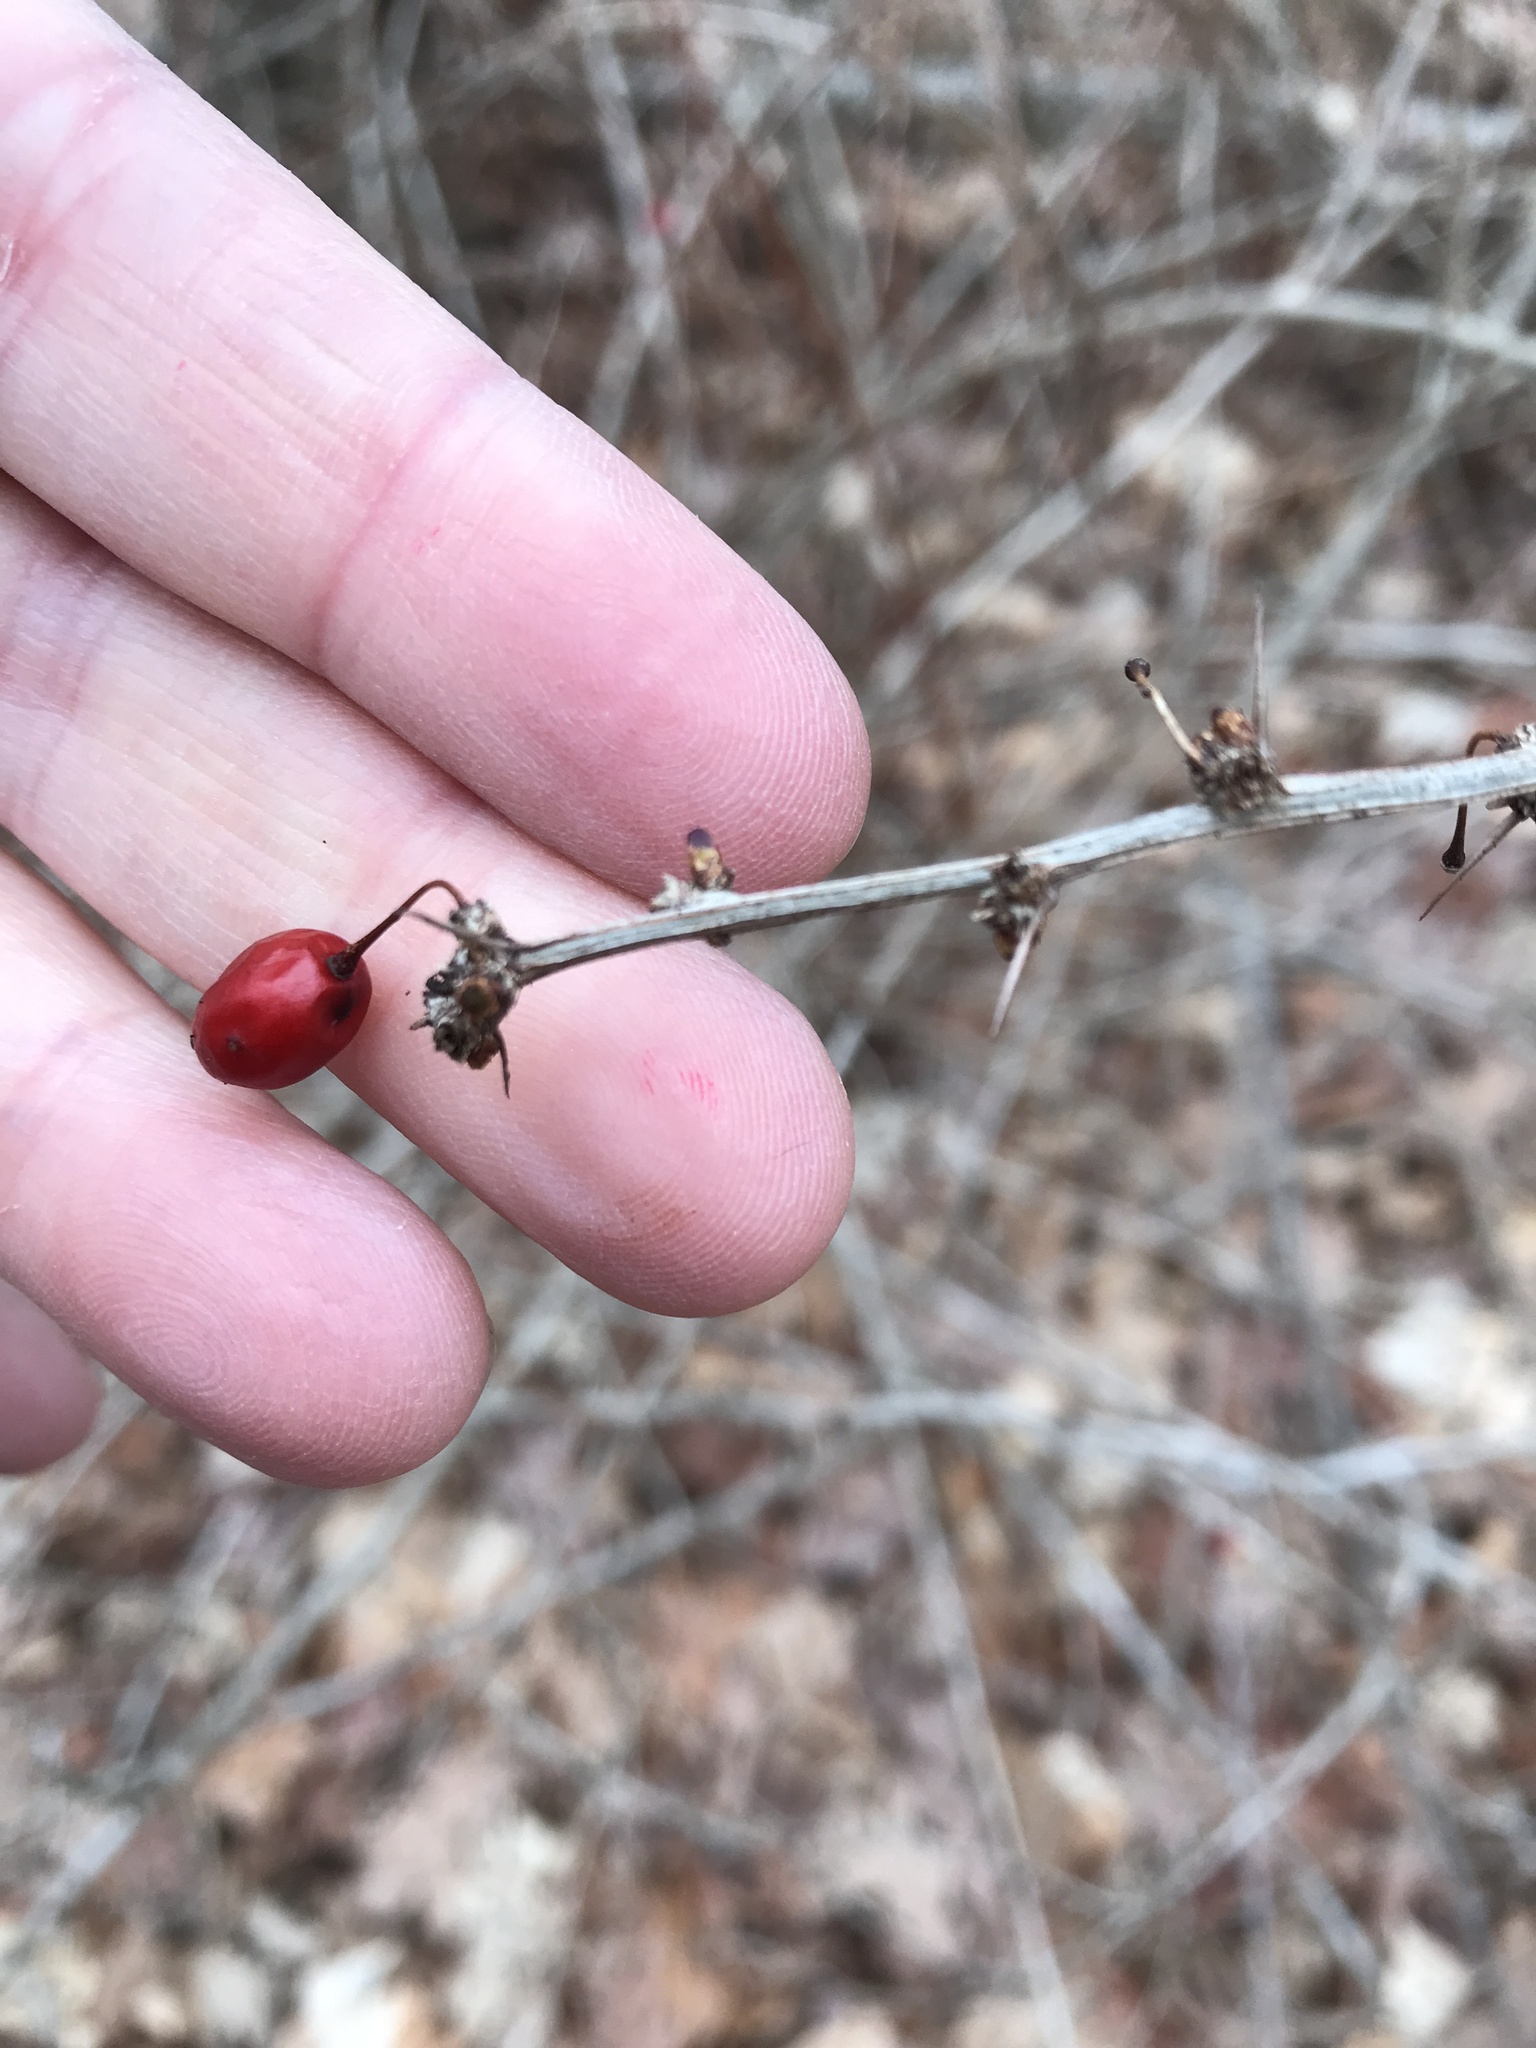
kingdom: Plantae
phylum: Tracheophyta
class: Magnoliopsida
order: Ranunculales
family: Berberidaceae
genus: Berberis
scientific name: Berberis thunbergii
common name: Japanese barberry
